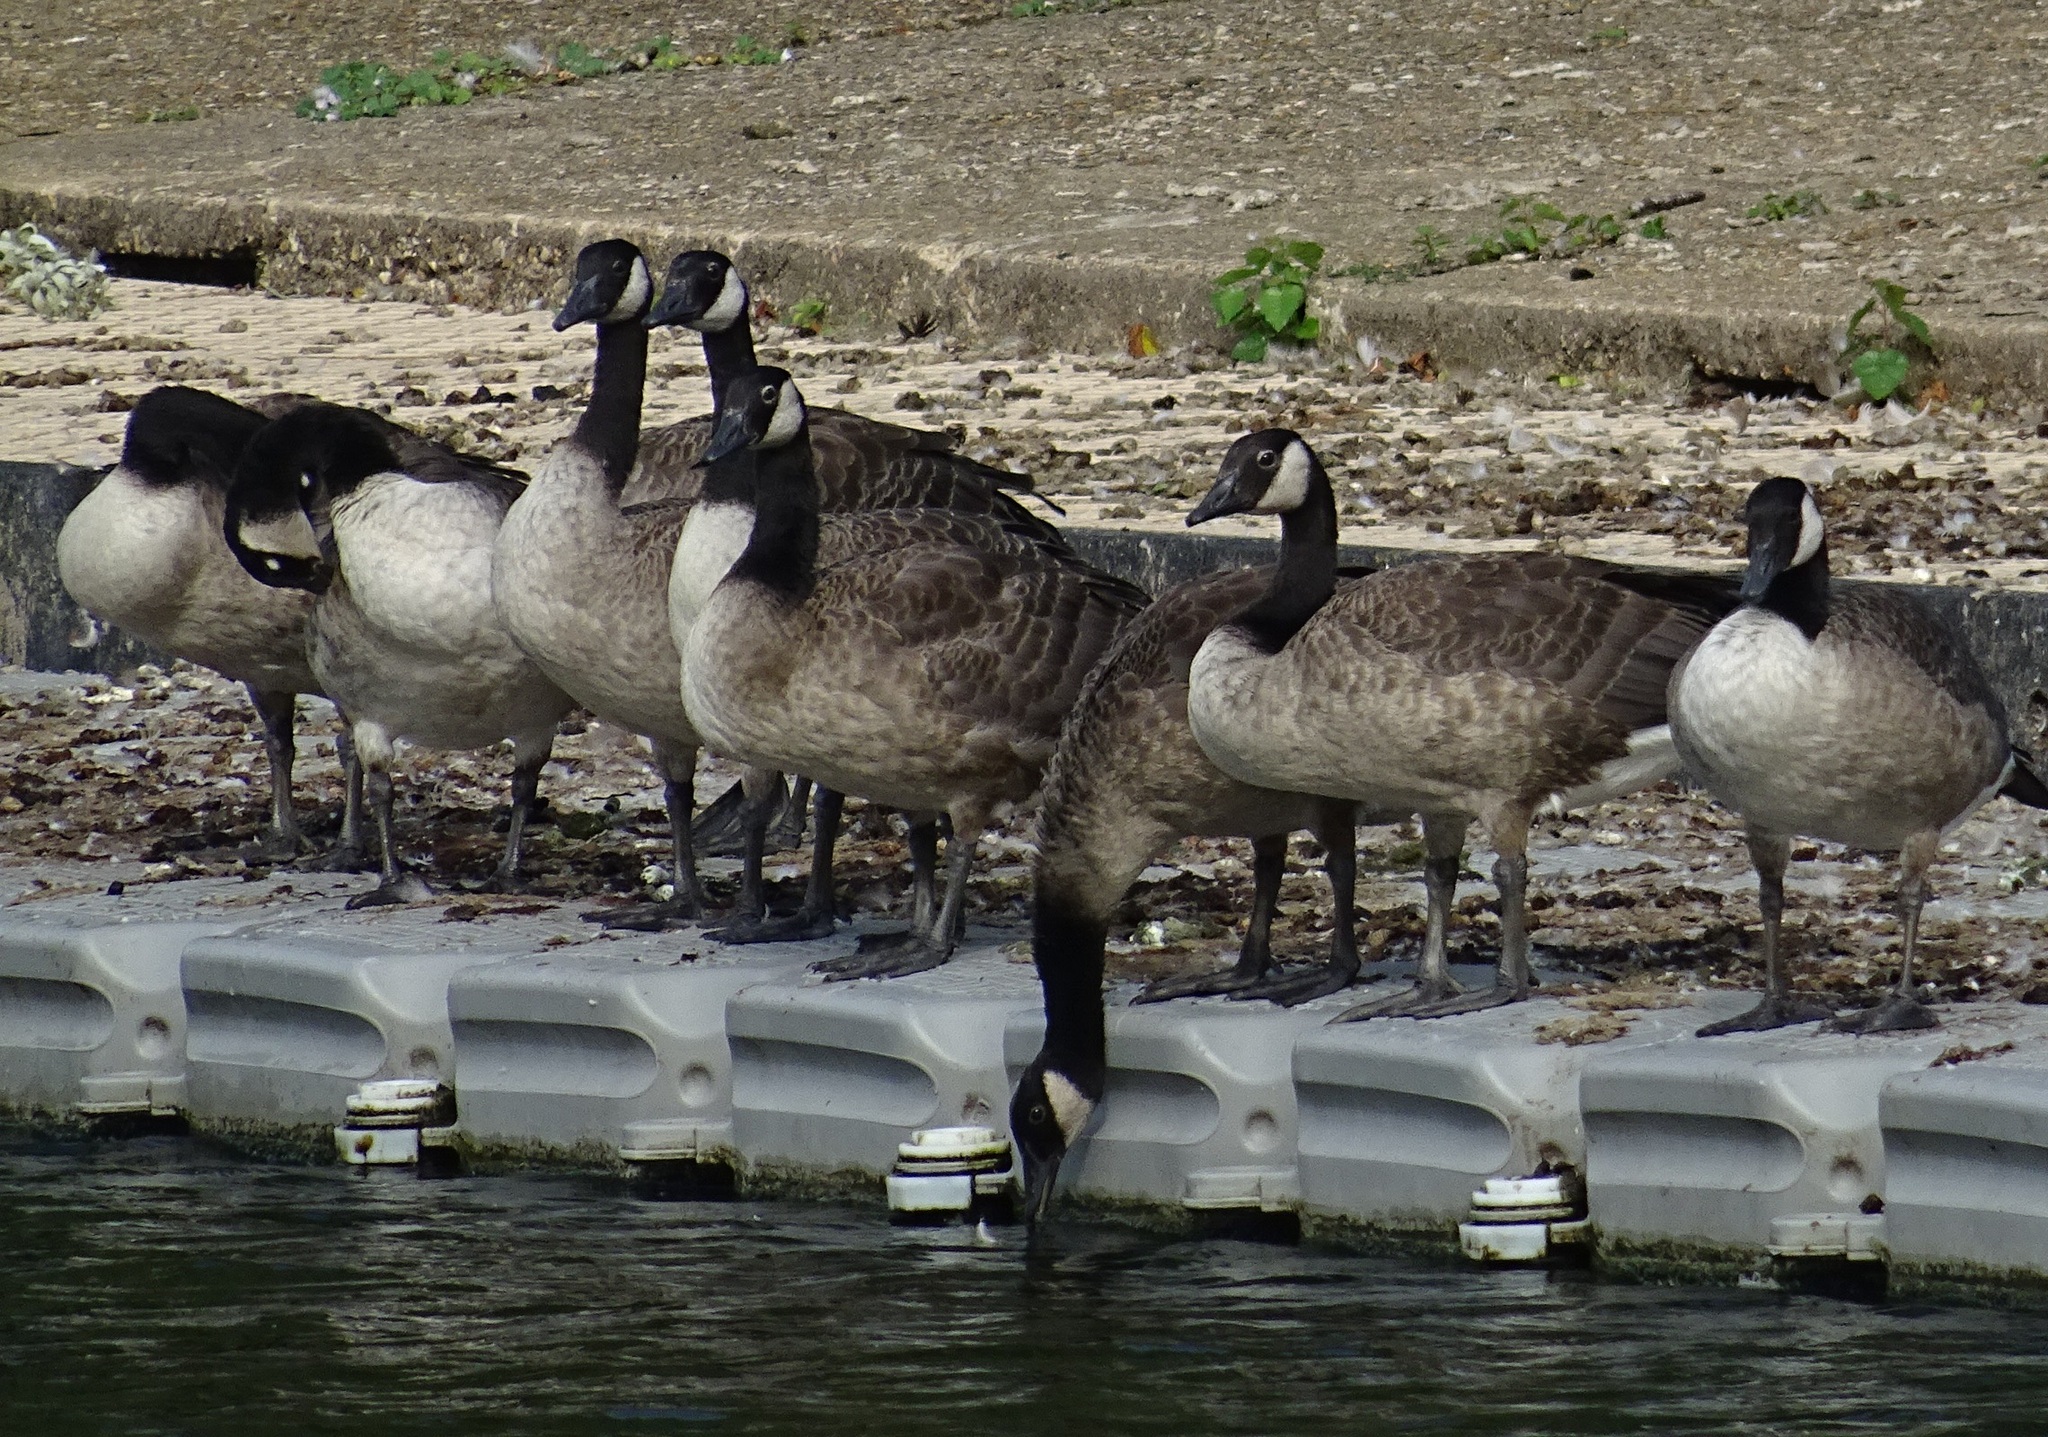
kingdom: Animalia
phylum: Chordata
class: Aves
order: Anseriformes
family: Anatidae
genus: Branta
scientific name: Branta canadensis
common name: Canada goose
